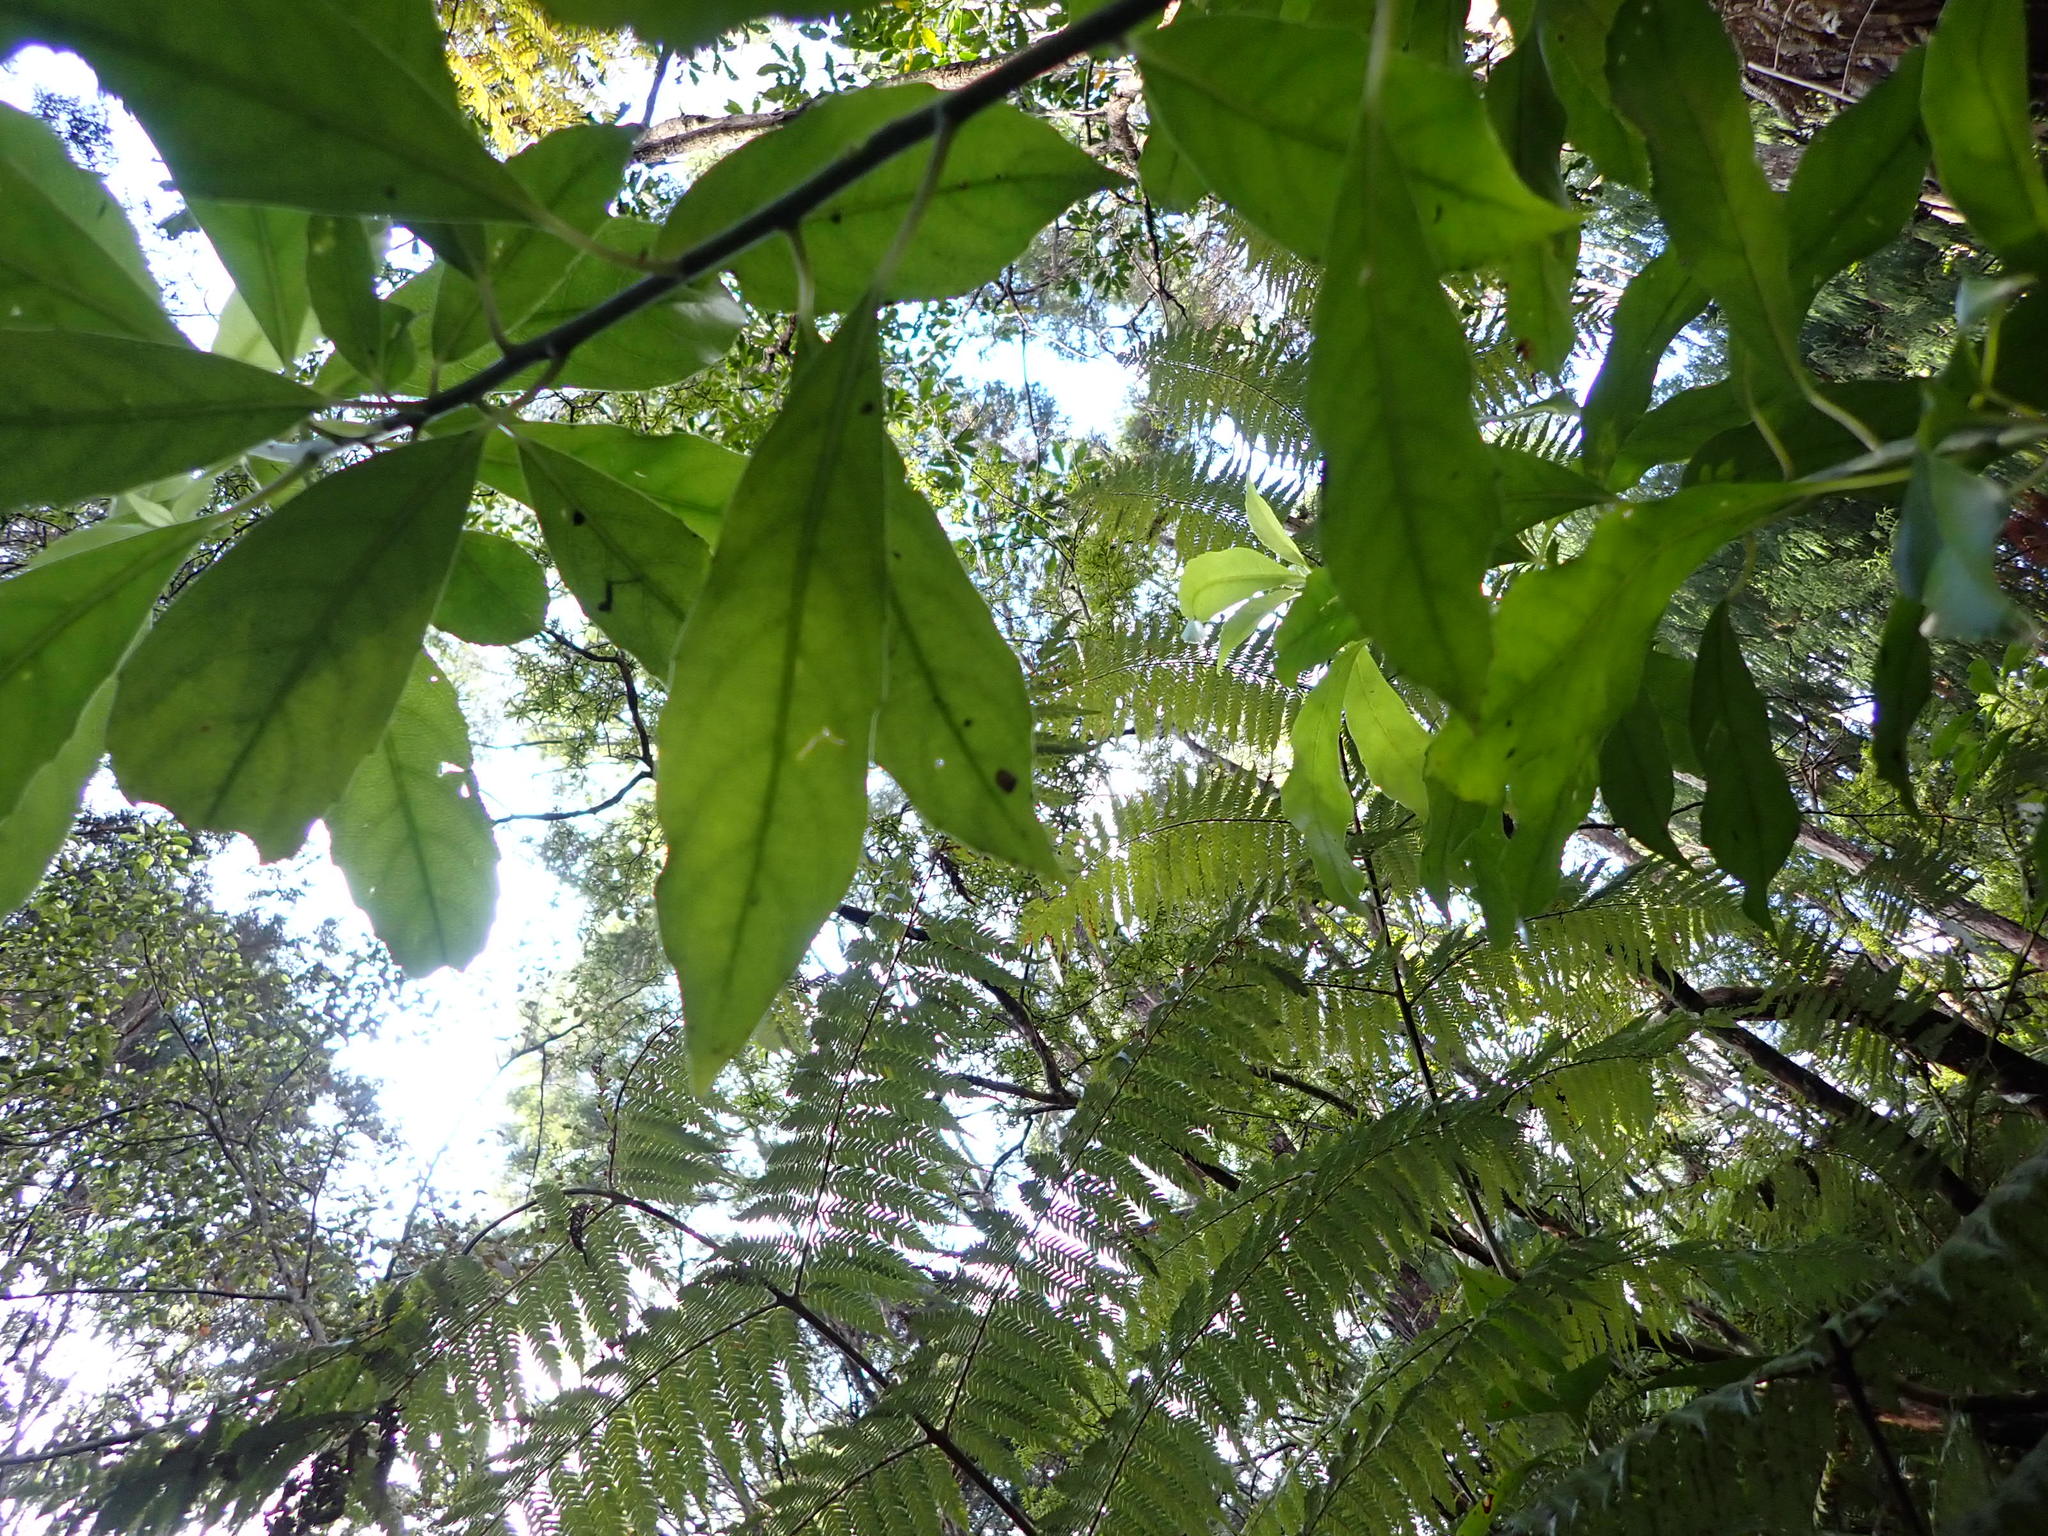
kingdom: Animalia
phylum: Mollusca
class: Gastropoda
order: Stylommatophora
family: Charopidae
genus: Serpho
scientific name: Serpho
